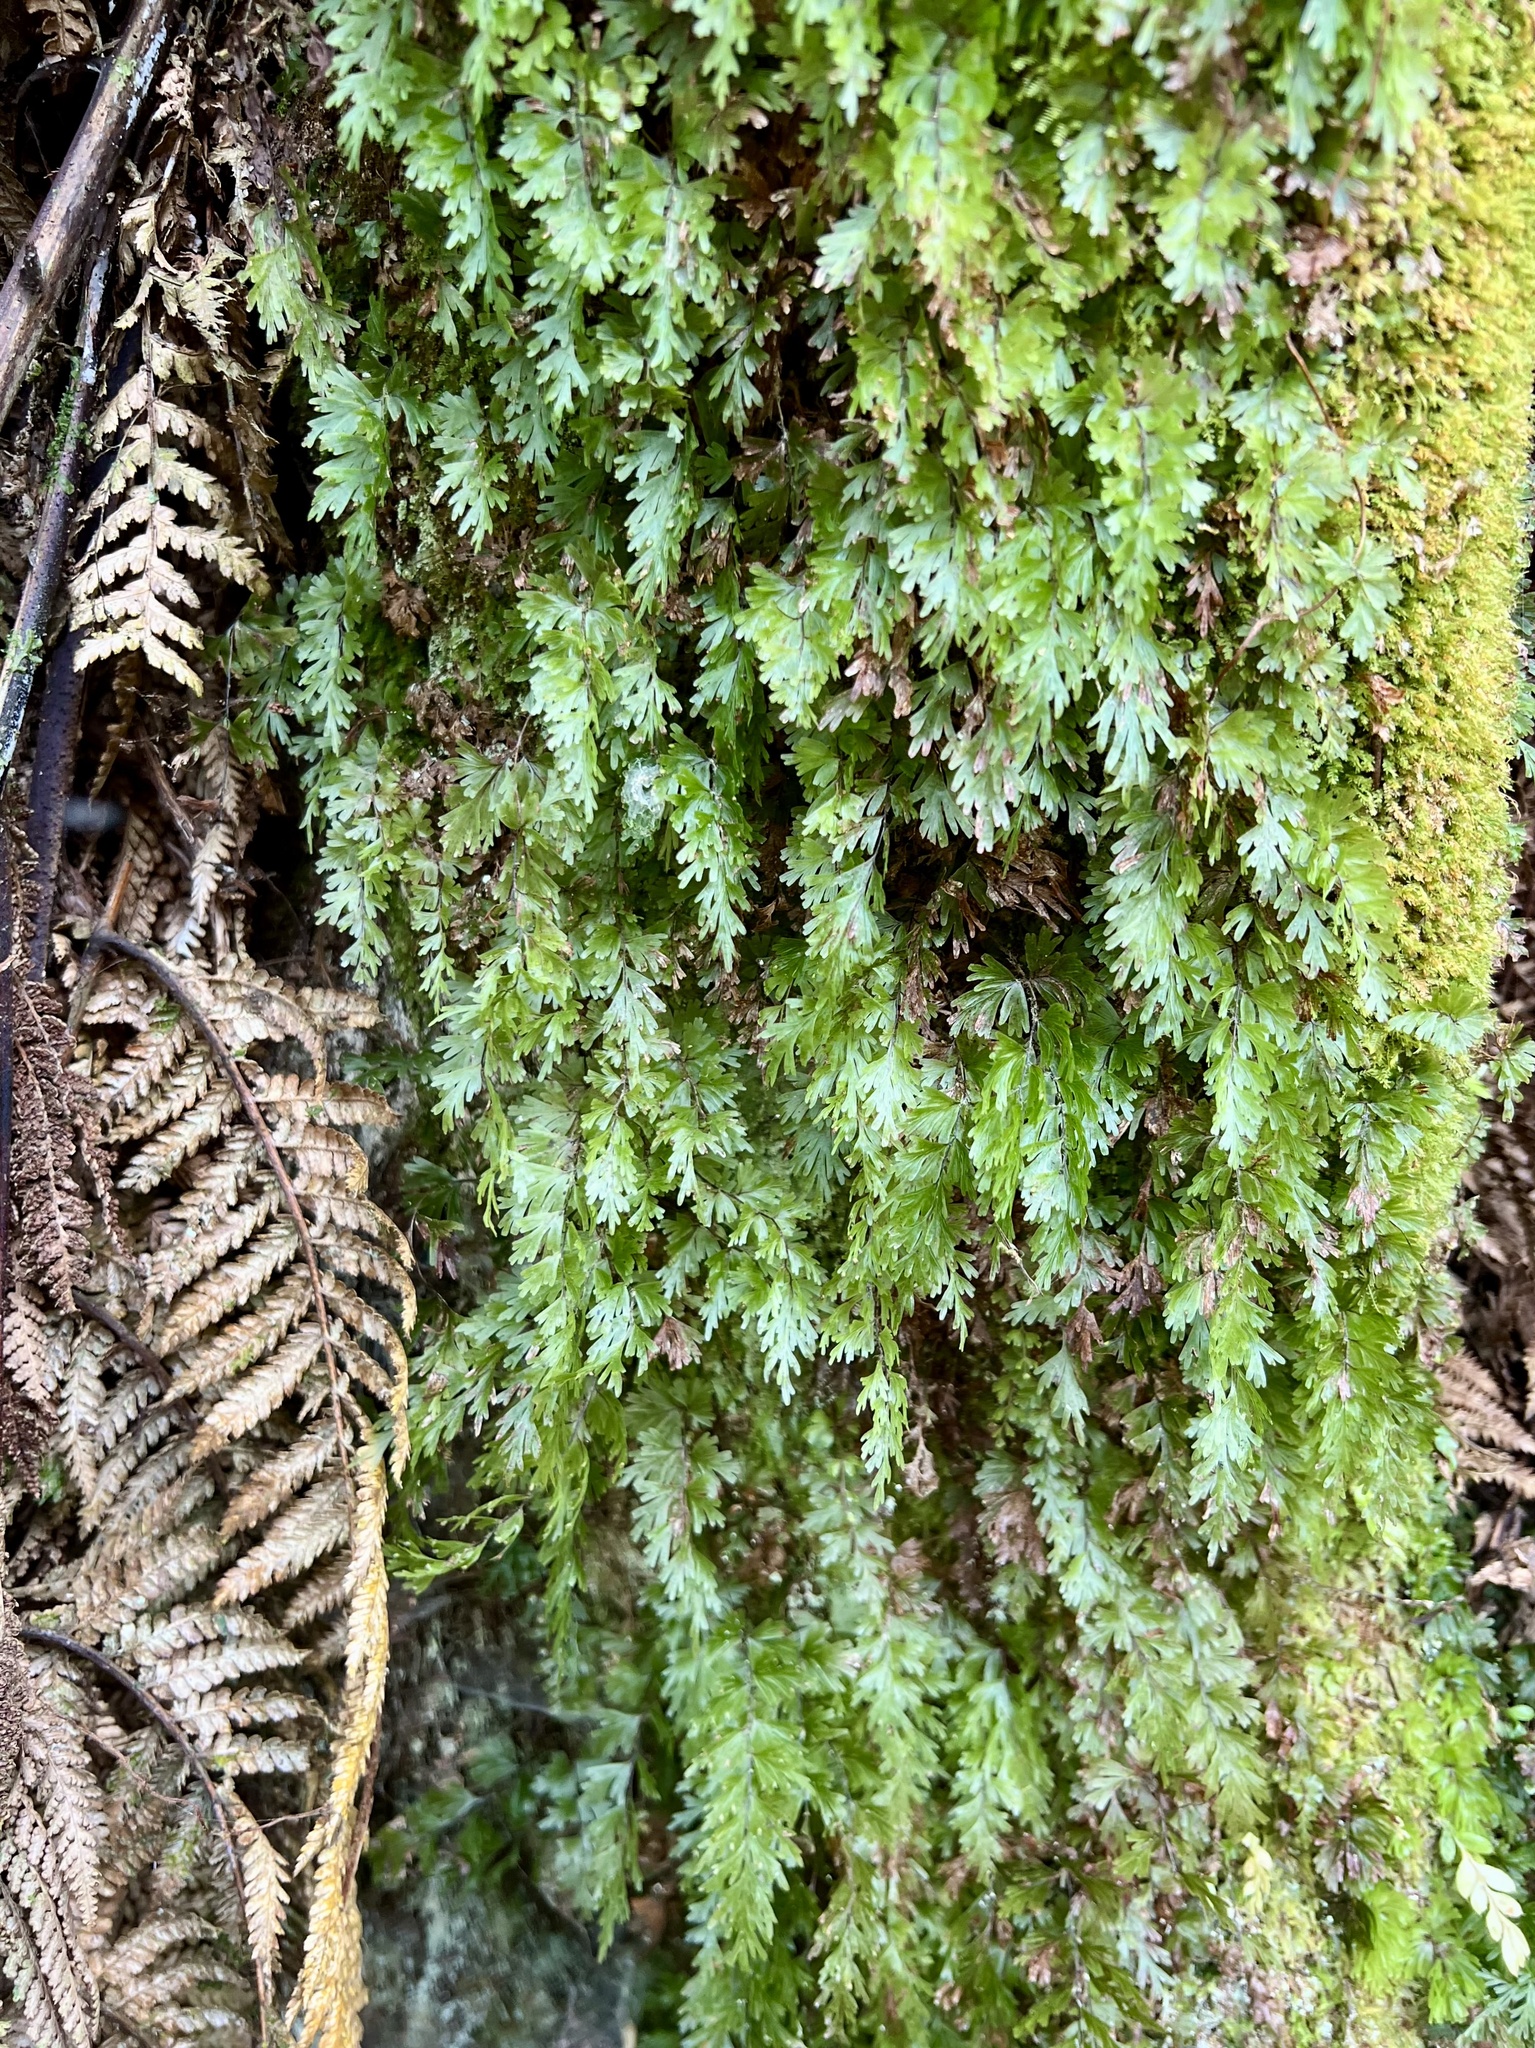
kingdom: Plantae
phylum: Tracheophyta
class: Polypodiopsida
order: Hymenophyllales
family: Hymenophyllaceae
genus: Hymenophyllum
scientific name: Hymenophyllum flabellatum
